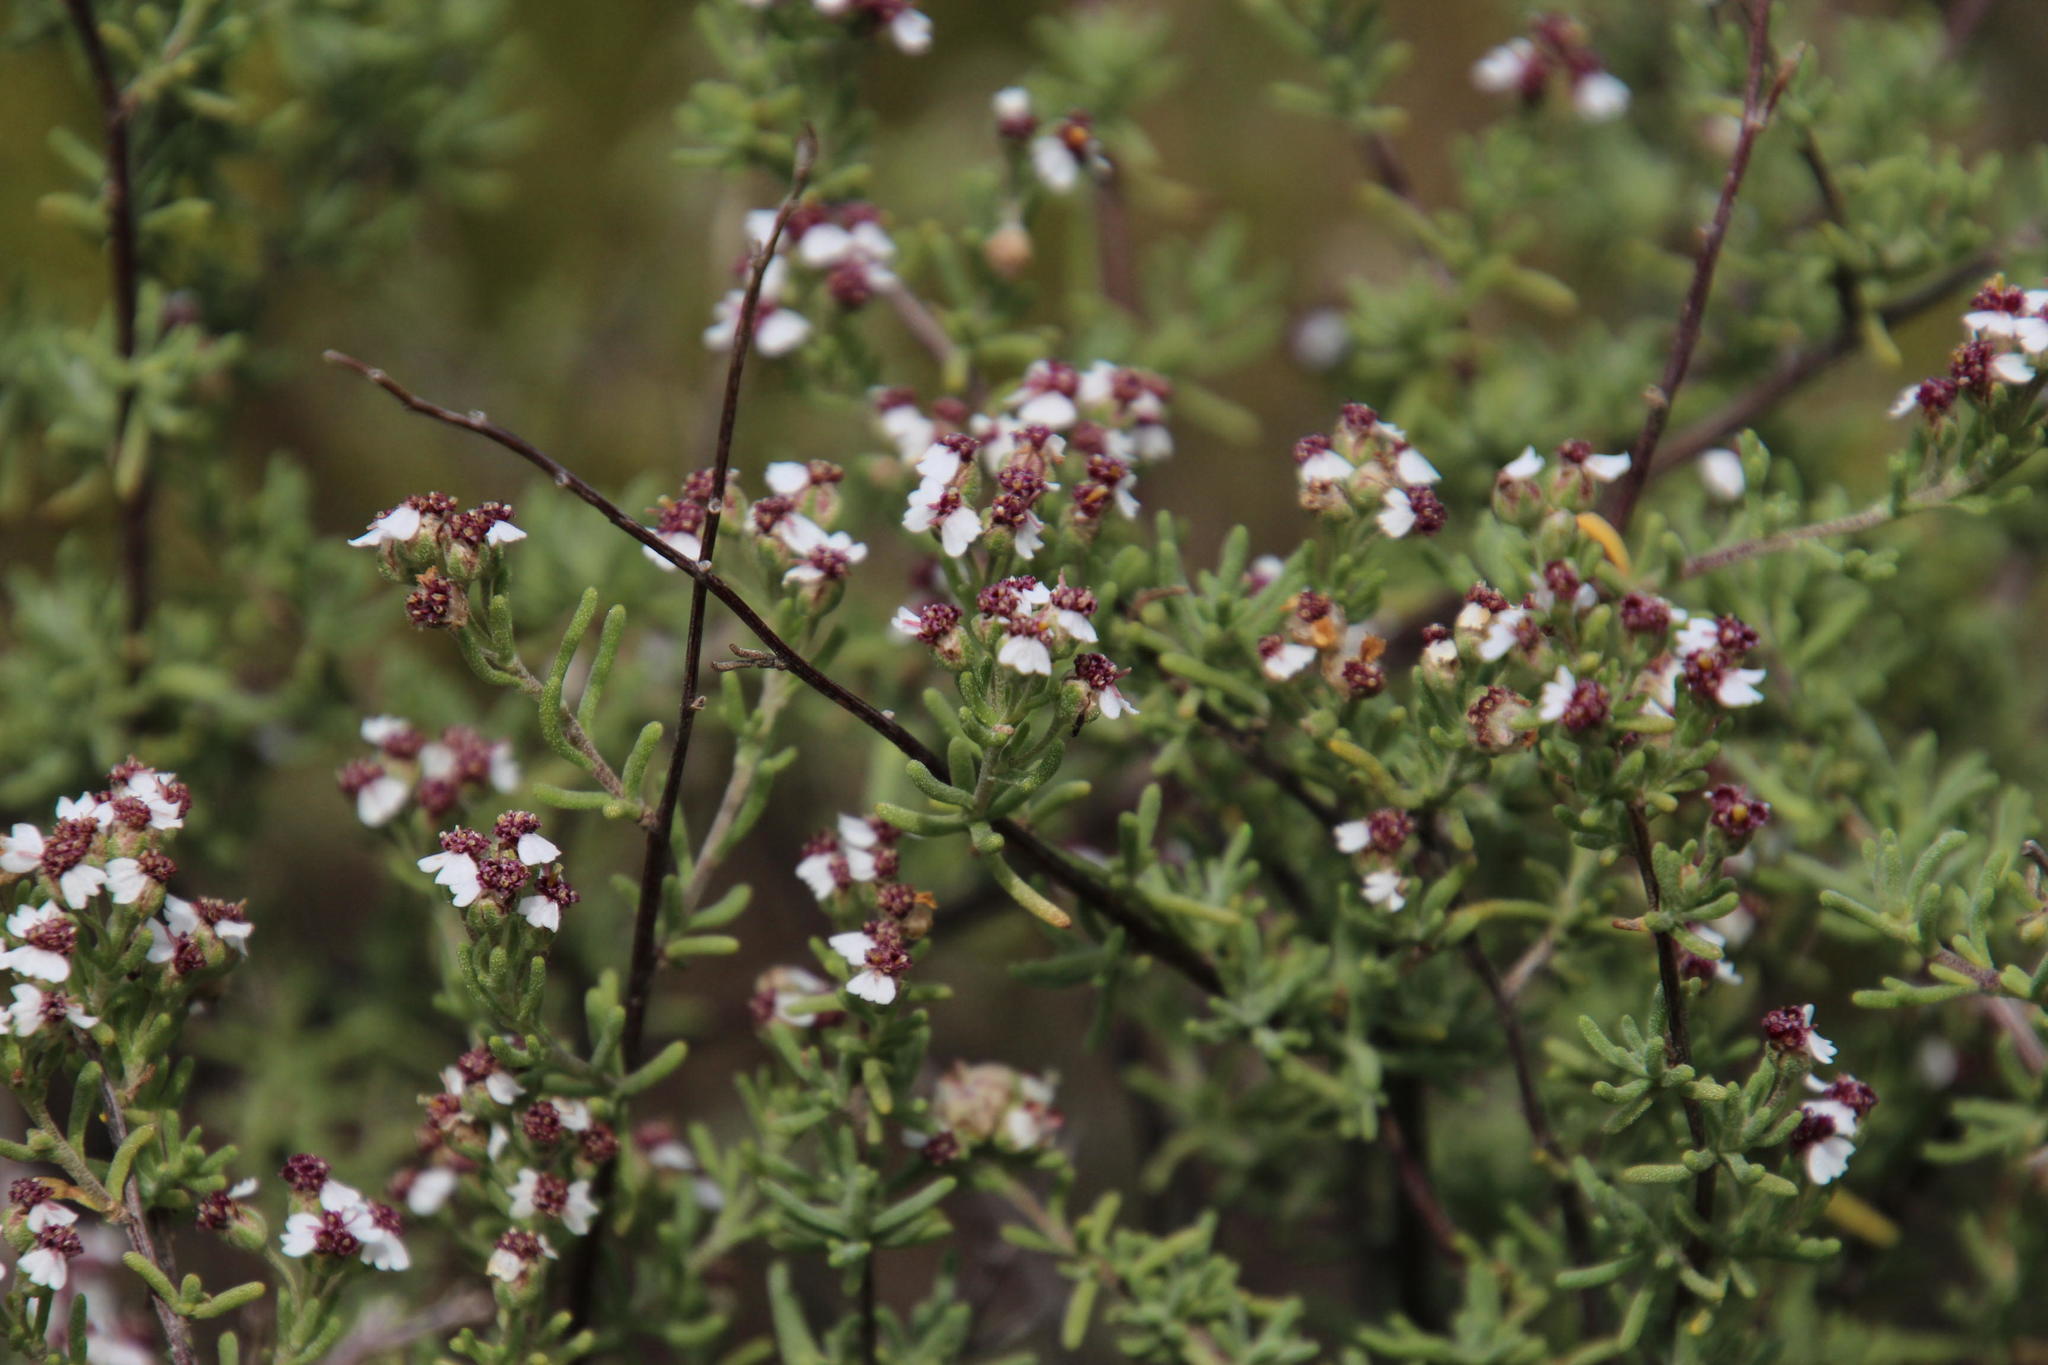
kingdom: Plantae
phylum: Tracheophyta
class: Magnoliopsida
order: Asterales
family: Asteraceae
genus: Eriocephalus
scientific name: Eriocephalus africanus
